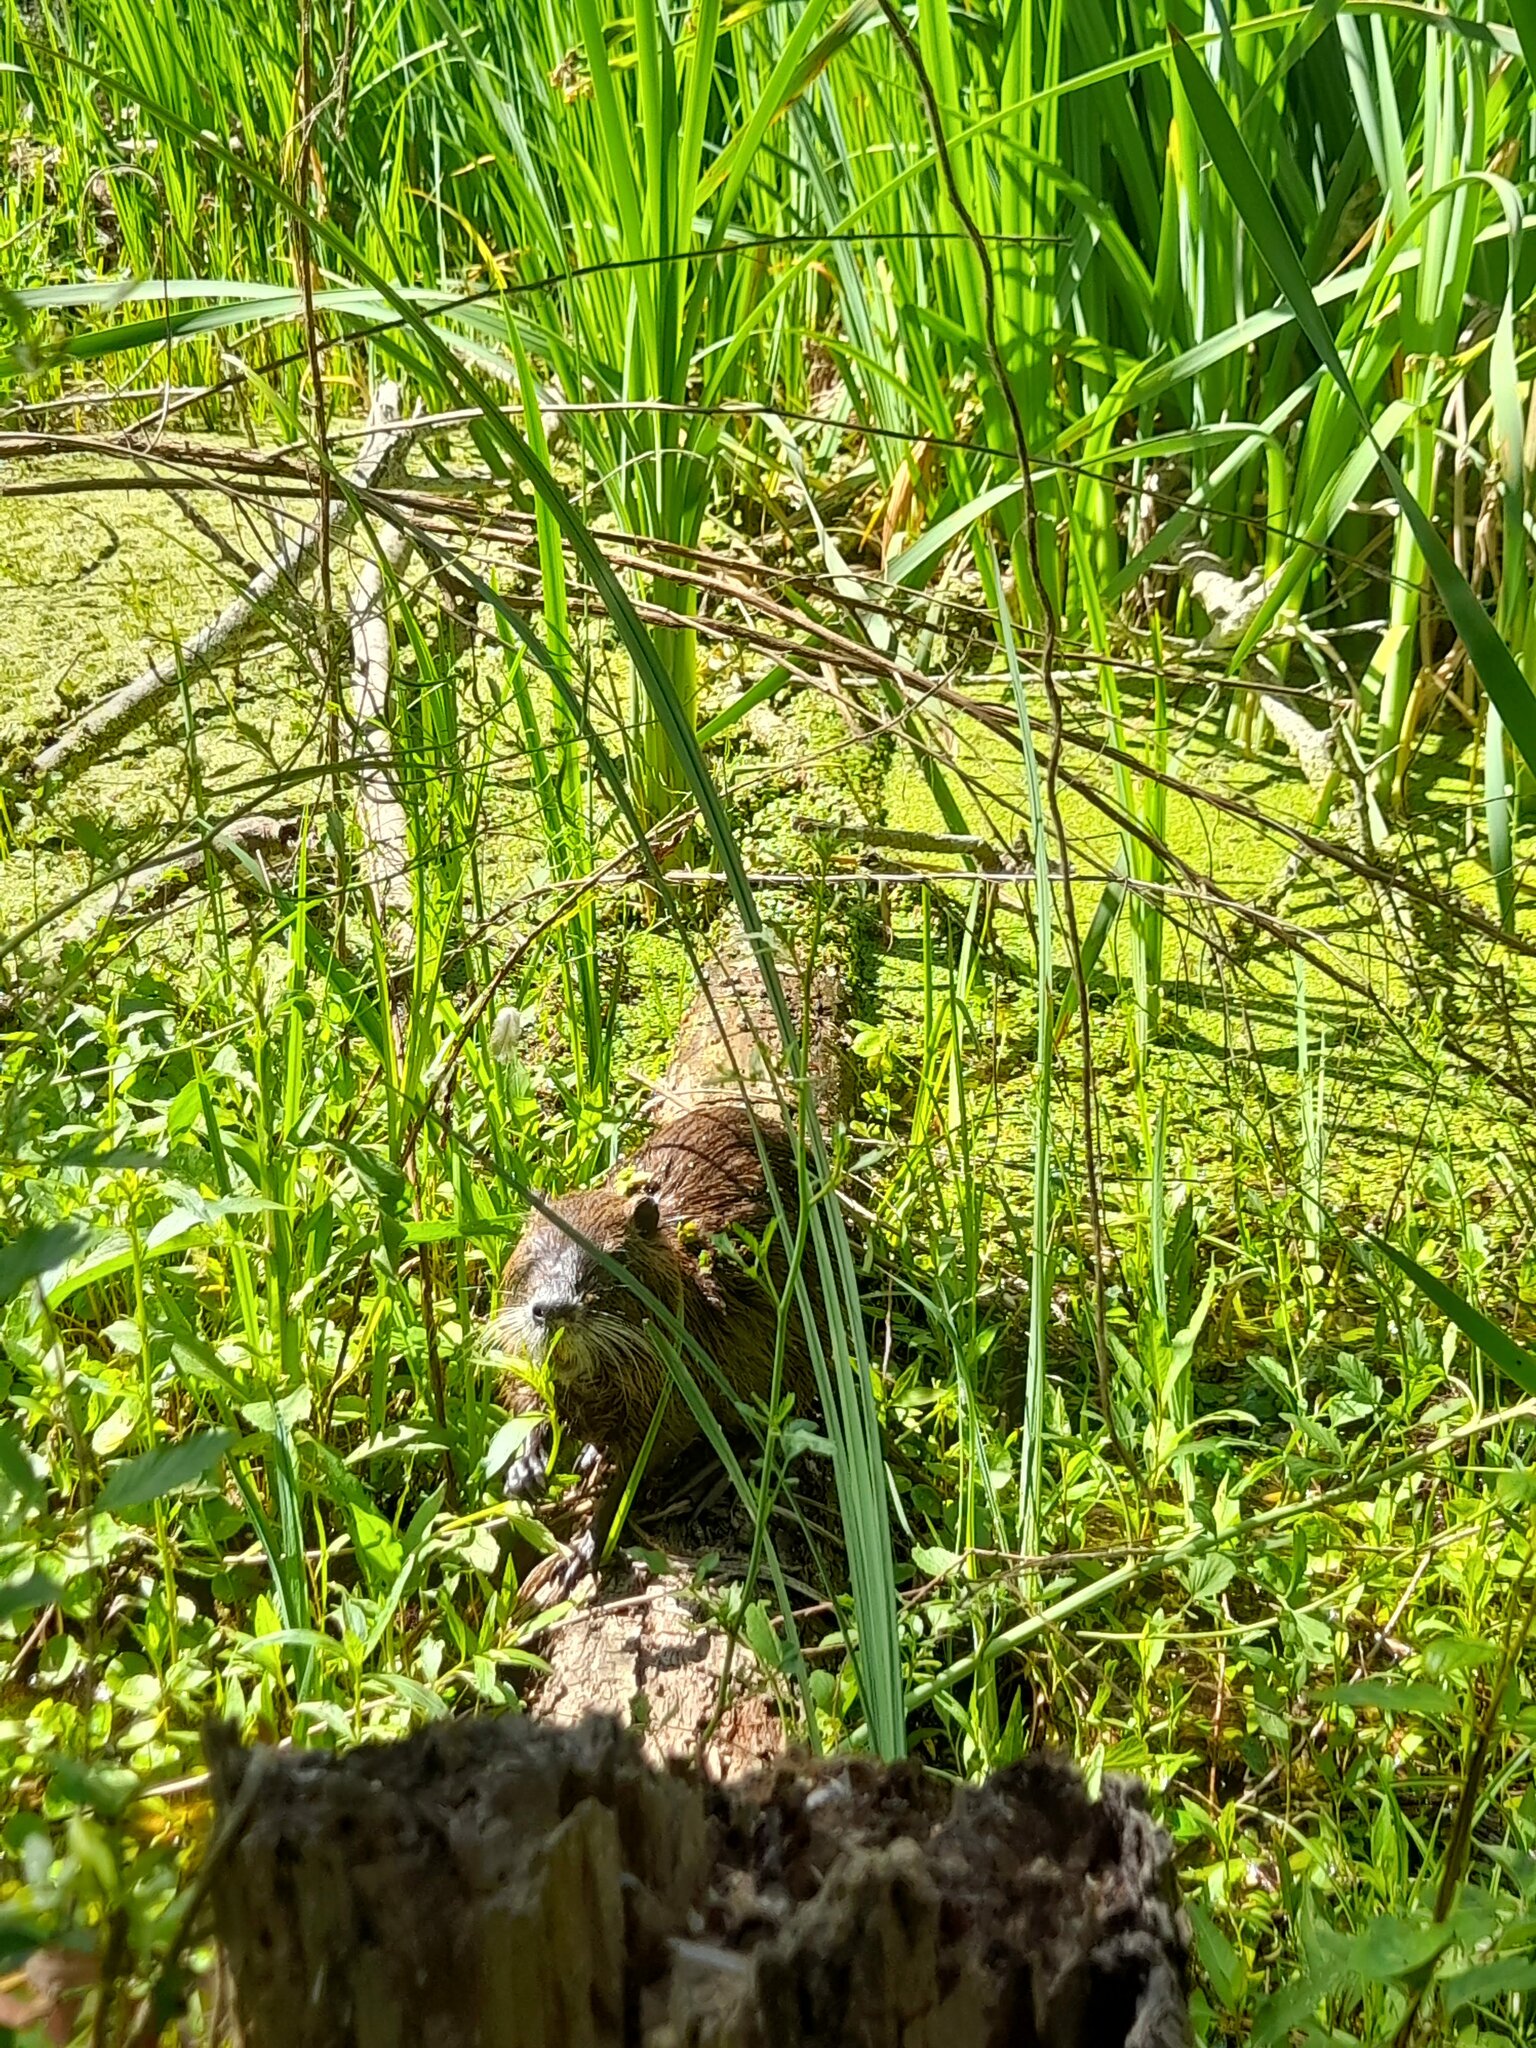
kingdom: Animalia
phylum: Chordata
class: Mammalia
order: Rodentia
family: Myocastoridae
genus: Myocastor
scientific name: Myocastor coypus
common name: Coypu
